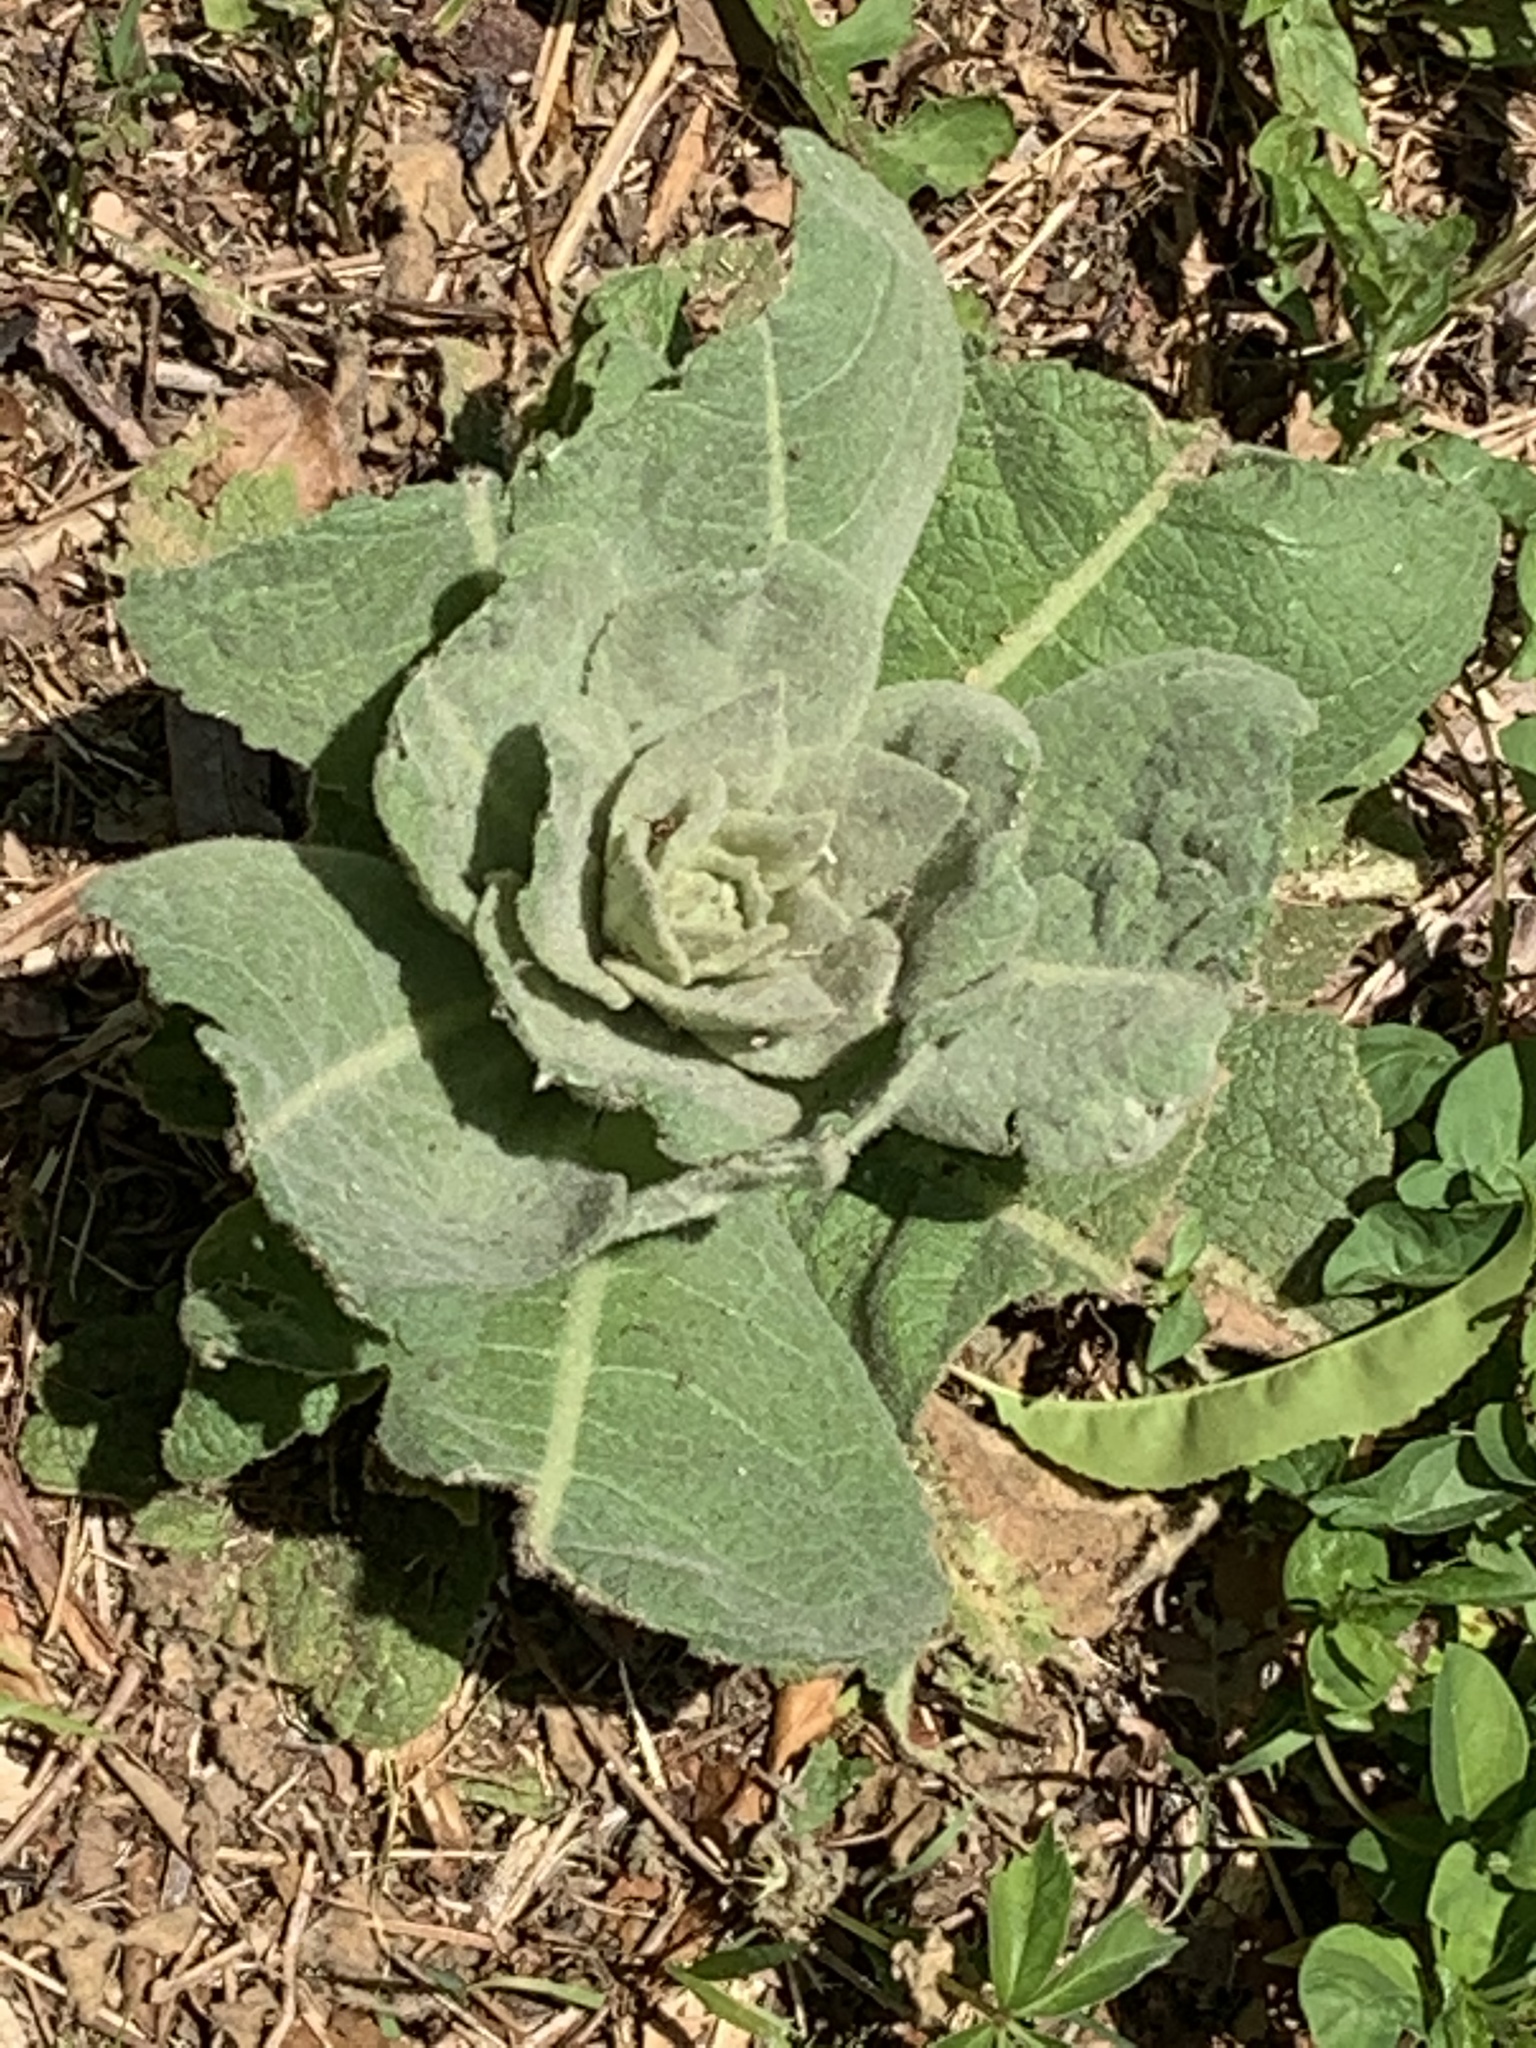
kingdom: Plantae
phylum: Tracheophyta
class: Magnoliopsida
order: Lamiales
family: Scrophulariaceae
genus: Verbascum
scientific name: Verbascum thapsus
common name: Common mullein
